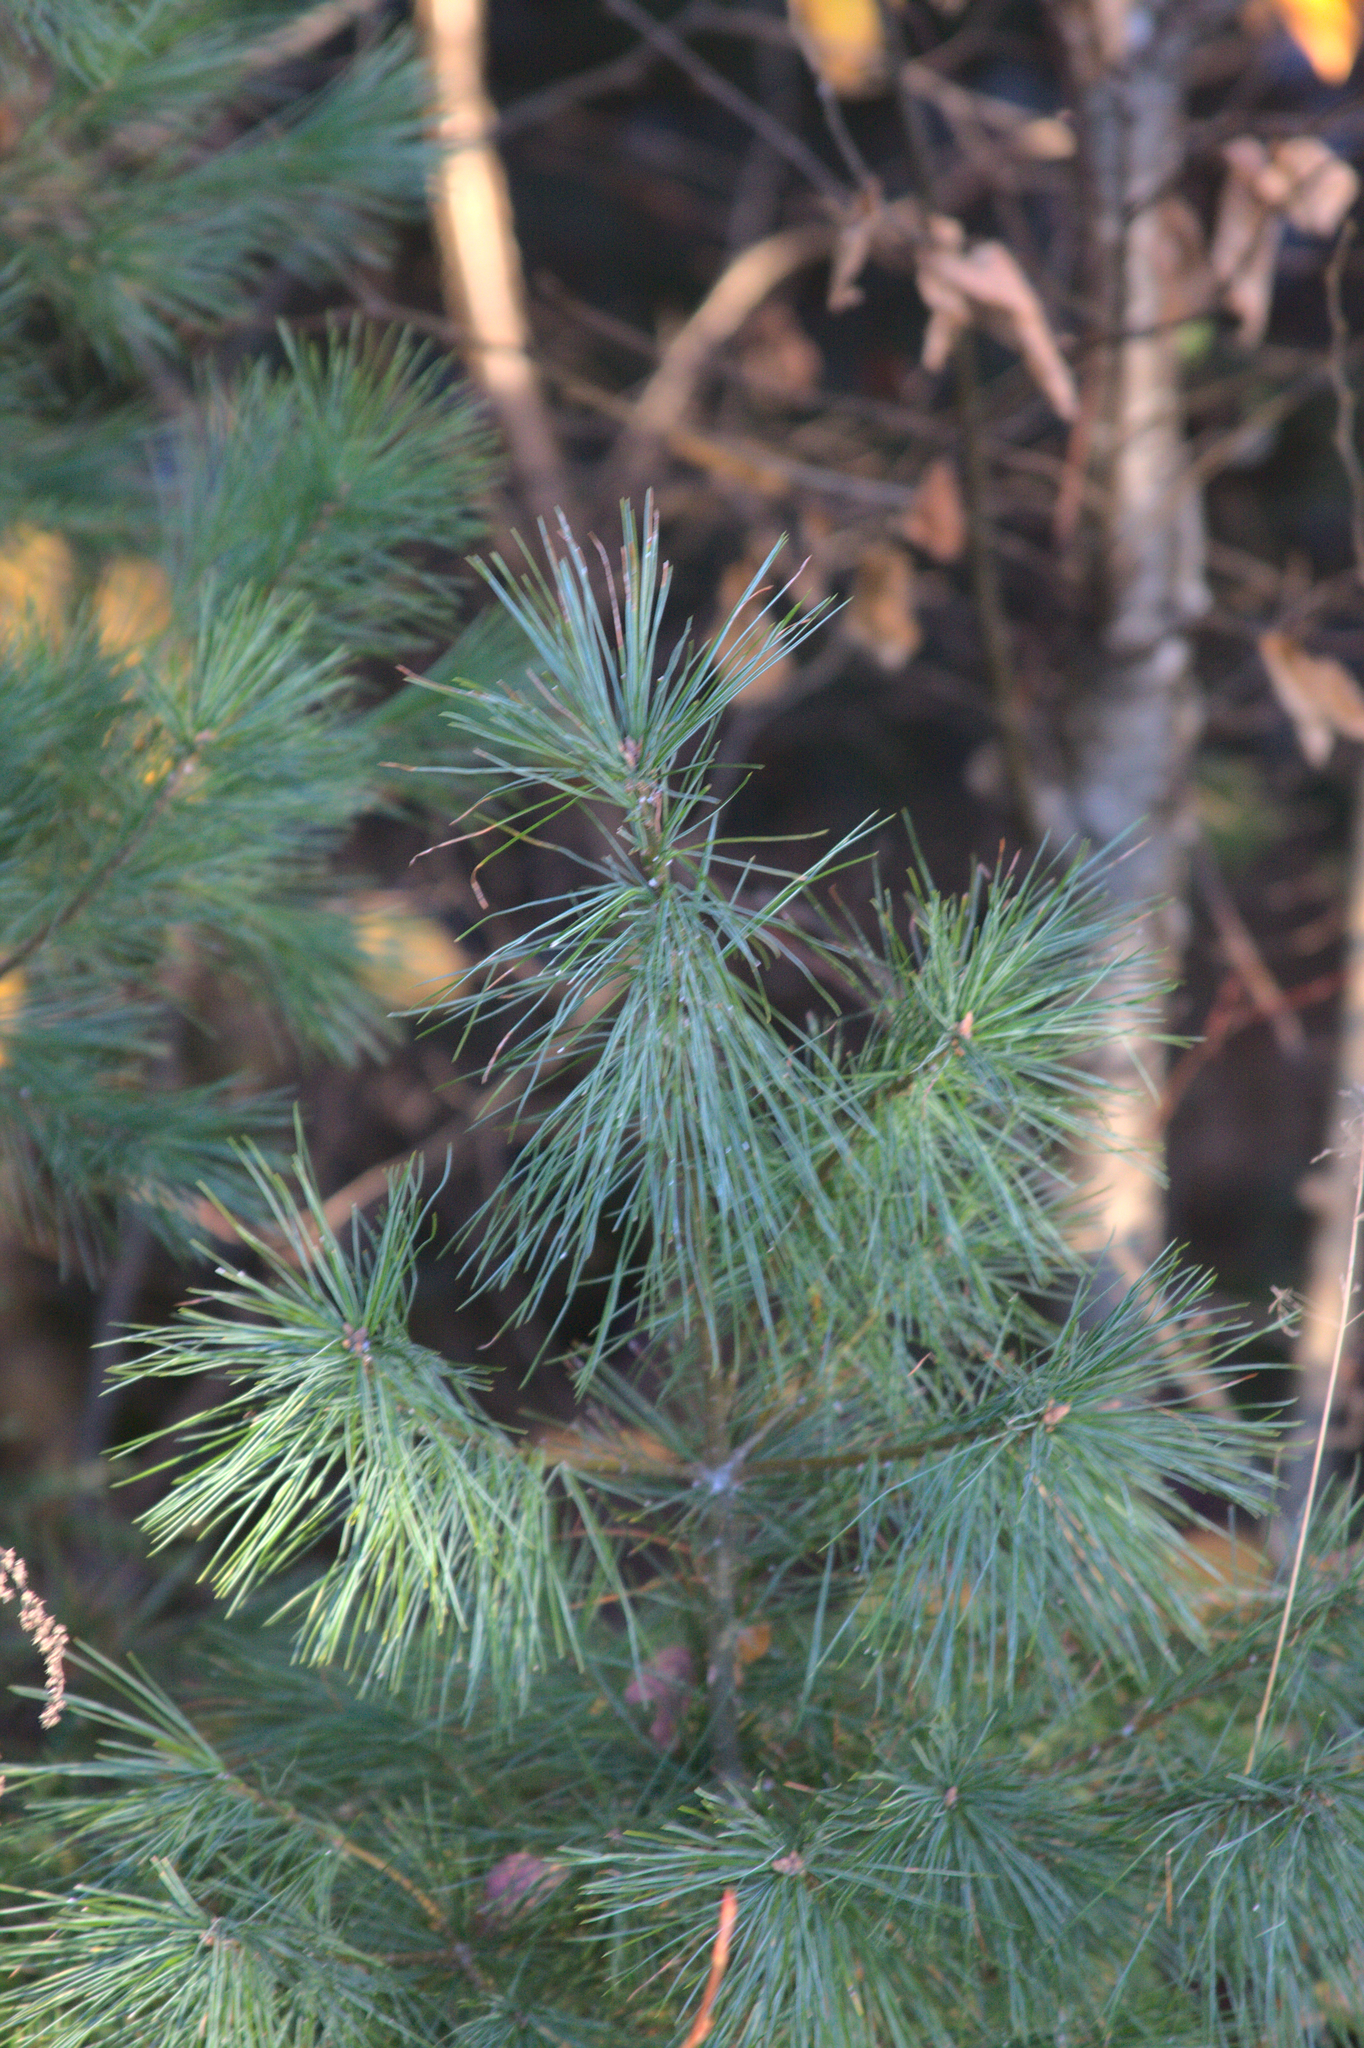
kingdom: Plantae
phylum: Tracheophyta
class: Pinopsida
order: Pinales
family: Pinaceae
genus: Pinus
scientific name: Pinus strobus
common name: Weymouth pine
